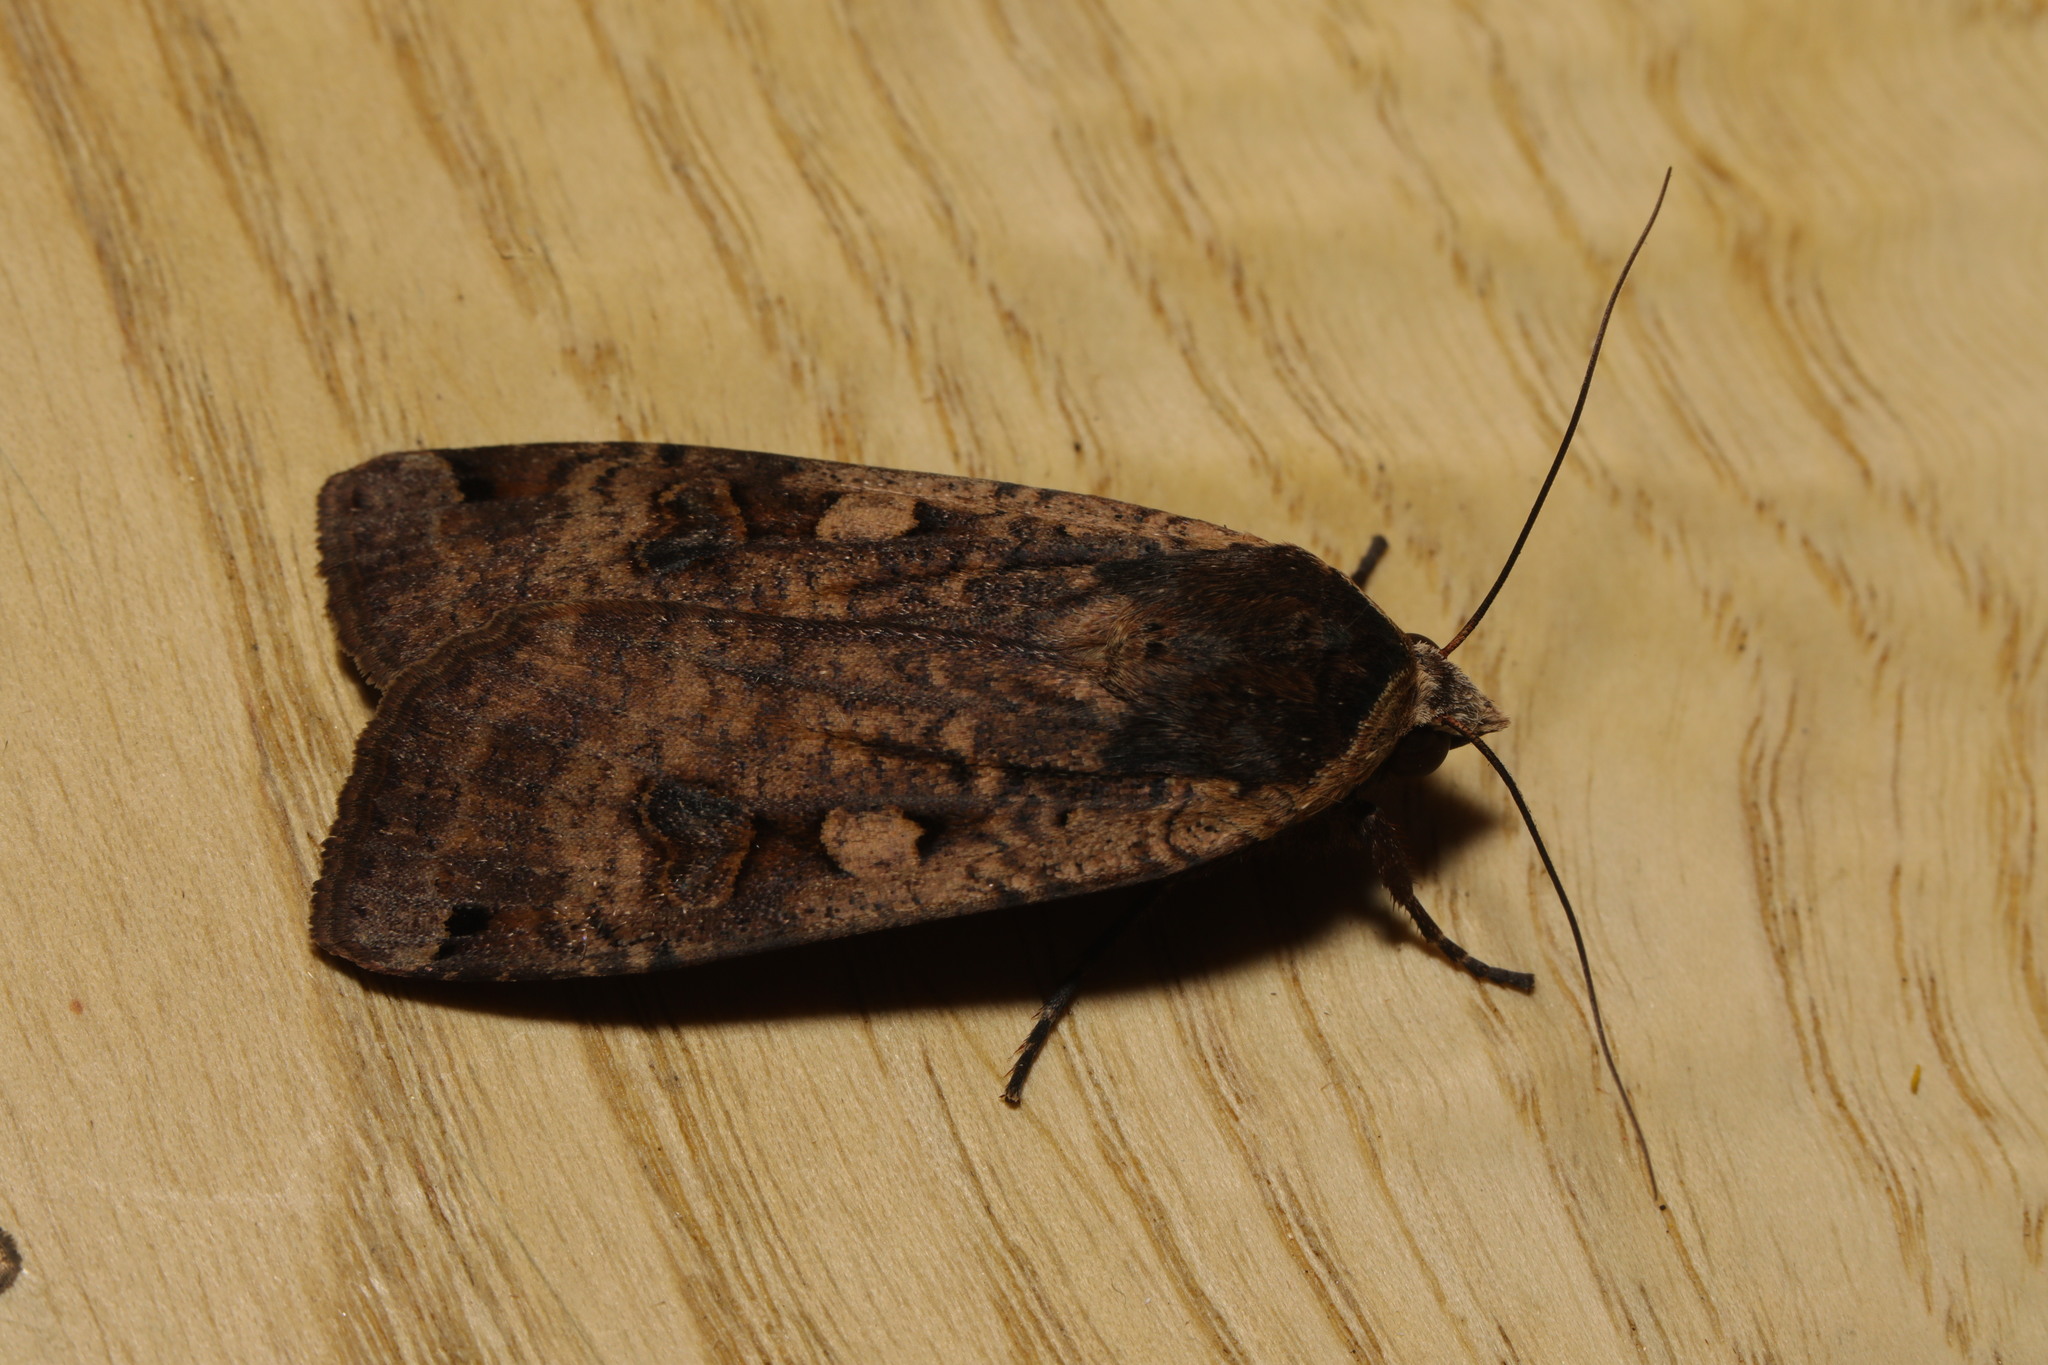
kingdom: Animalia
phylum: Arthropoda
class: Insecta
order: Lepidoptera
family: Noctuidae
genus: Noctua
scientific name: Noctua pronuba
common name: Large yellow underwing
